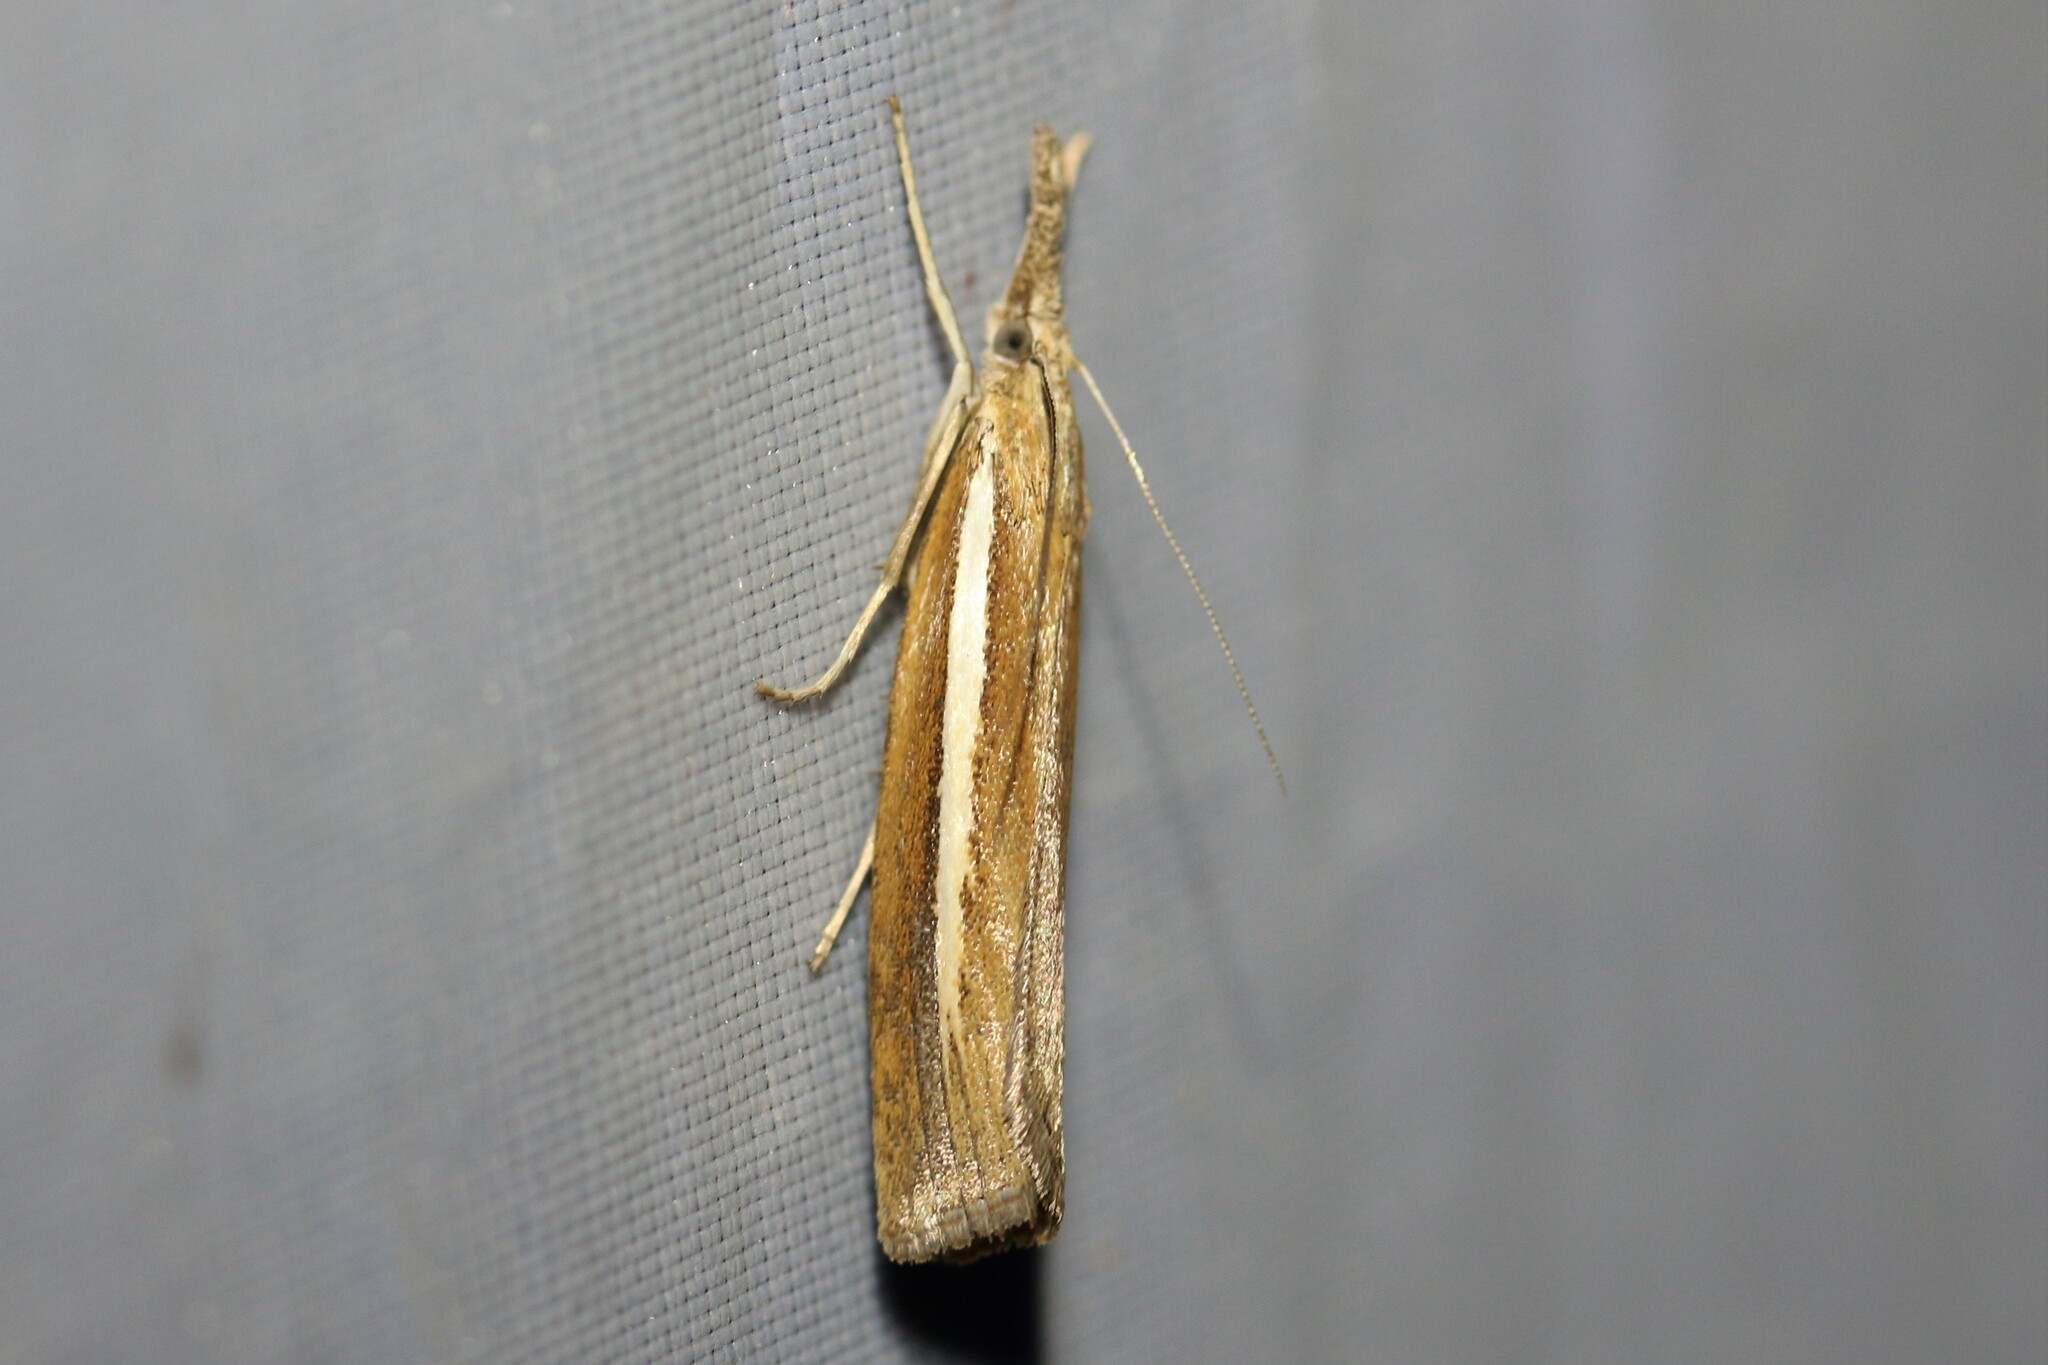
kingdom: Animalia
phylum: Arthropoda
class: Insecta
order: Lepidoptera
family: Crambidae
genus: Agriphila
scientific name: Agriphila selasella
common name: Pale-streak grass-veneer
